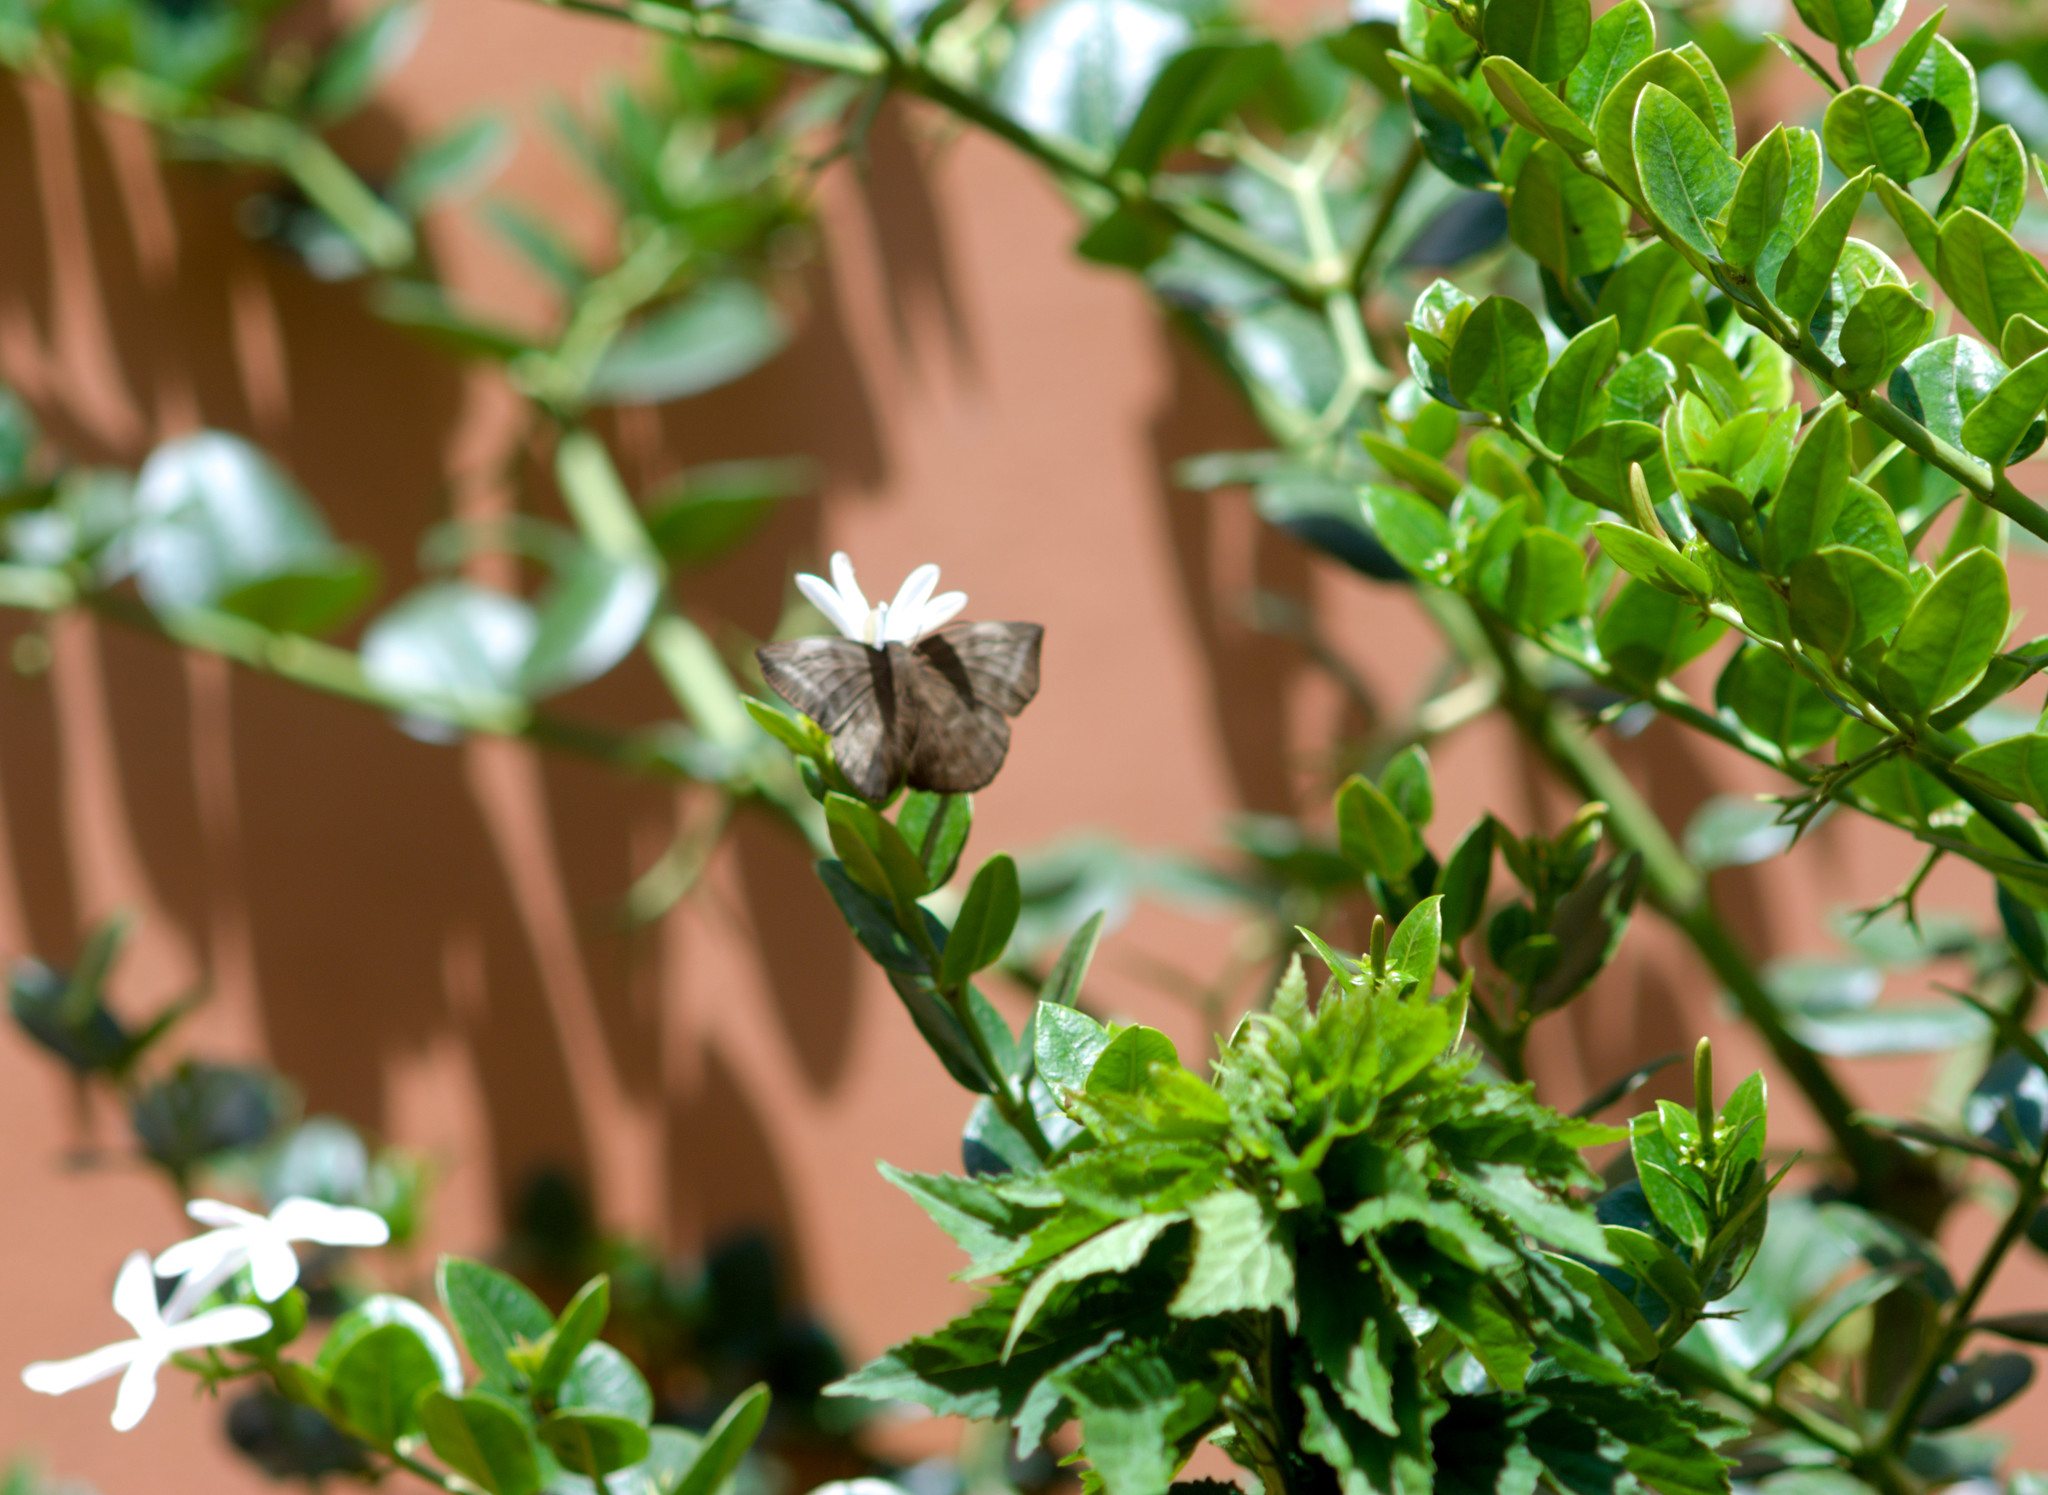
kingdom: Animalia
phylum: Arthropoda
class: Insecta
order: Lepidoptera
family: Hesperiidae
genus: Achlyodes
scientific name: Achlyodes pallida
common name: Pale sicklewing
